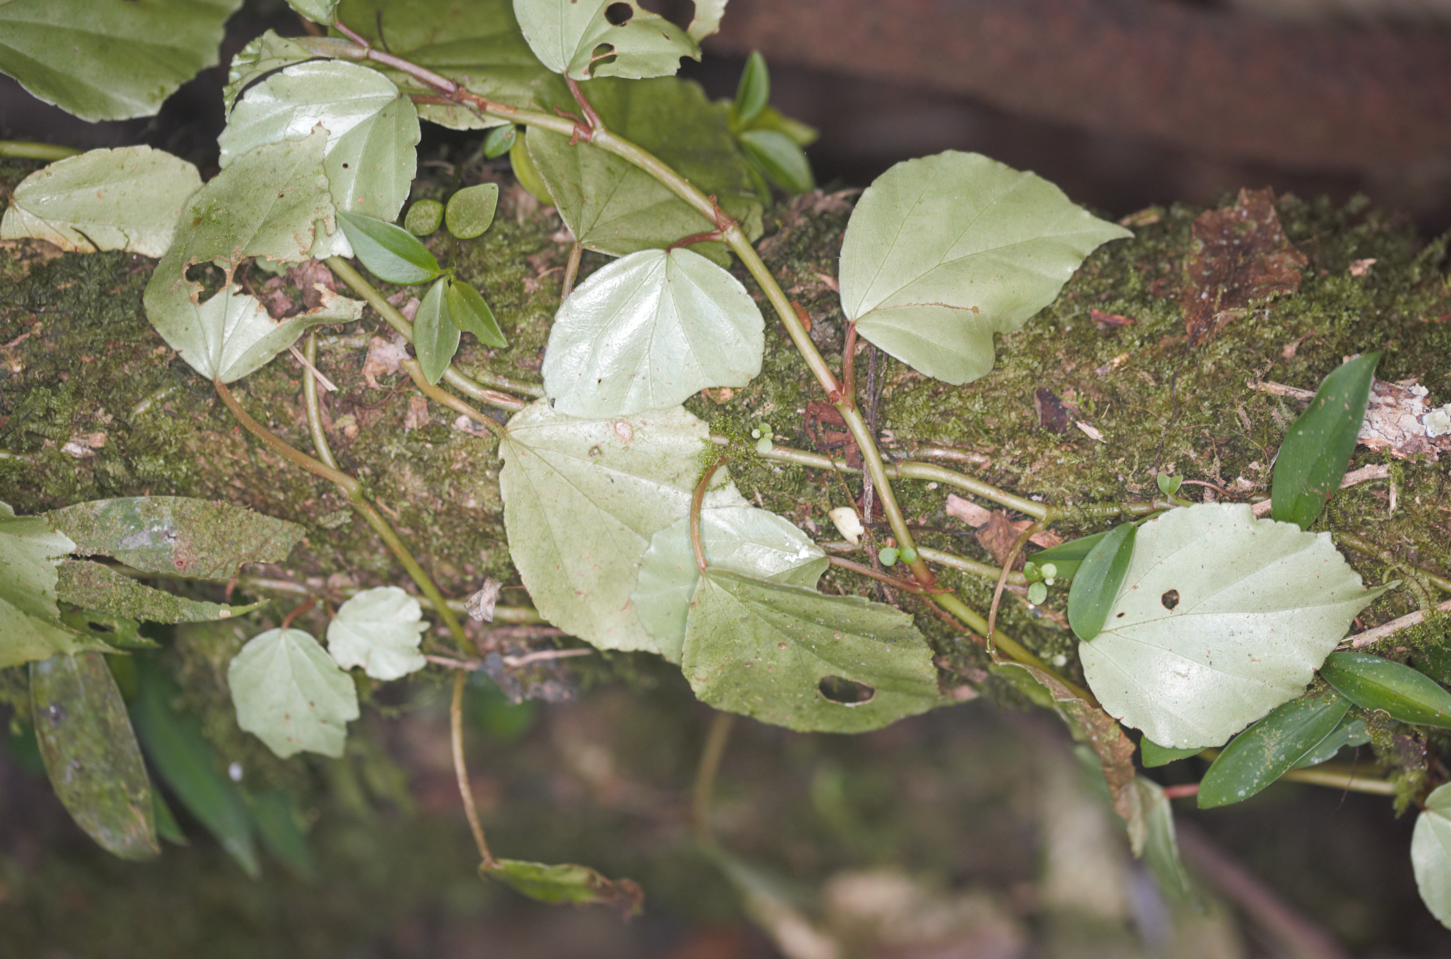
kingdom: Plantae
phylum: Tracheophyta
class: Magnoliopsida
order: Cucurbitales
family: Begoniaceae
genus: Begonia
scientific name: Begonia glabra
